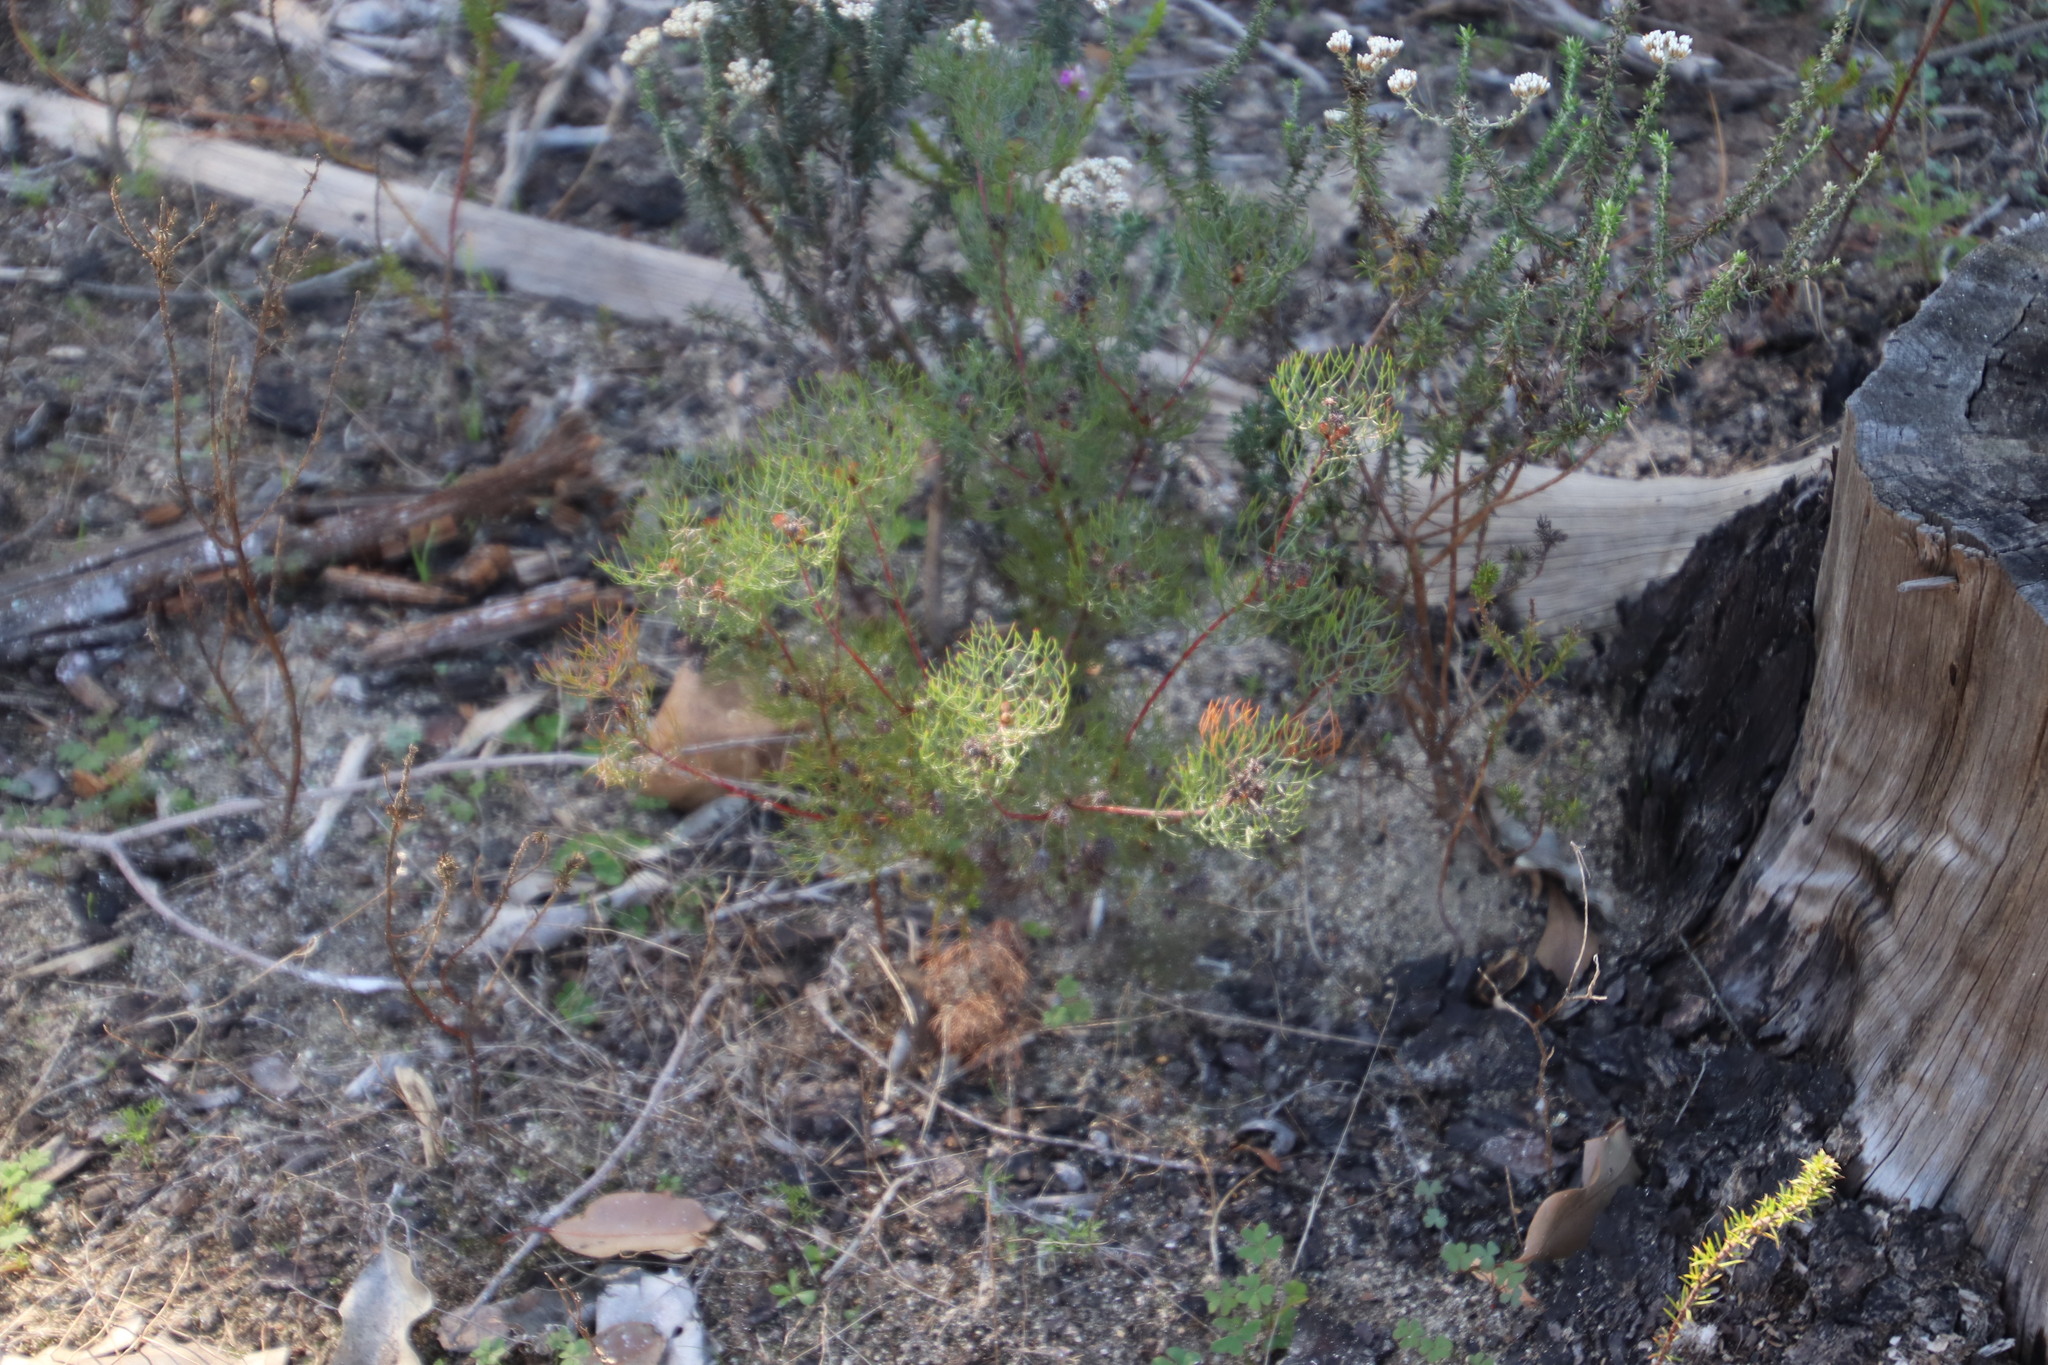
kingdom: Plantae
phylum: Tracheophyta
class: Magnoliopsida
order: Proteales
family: Proteaceae
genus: Serruria
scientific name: Serruria fasciflora
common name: Common pin spiderhead
